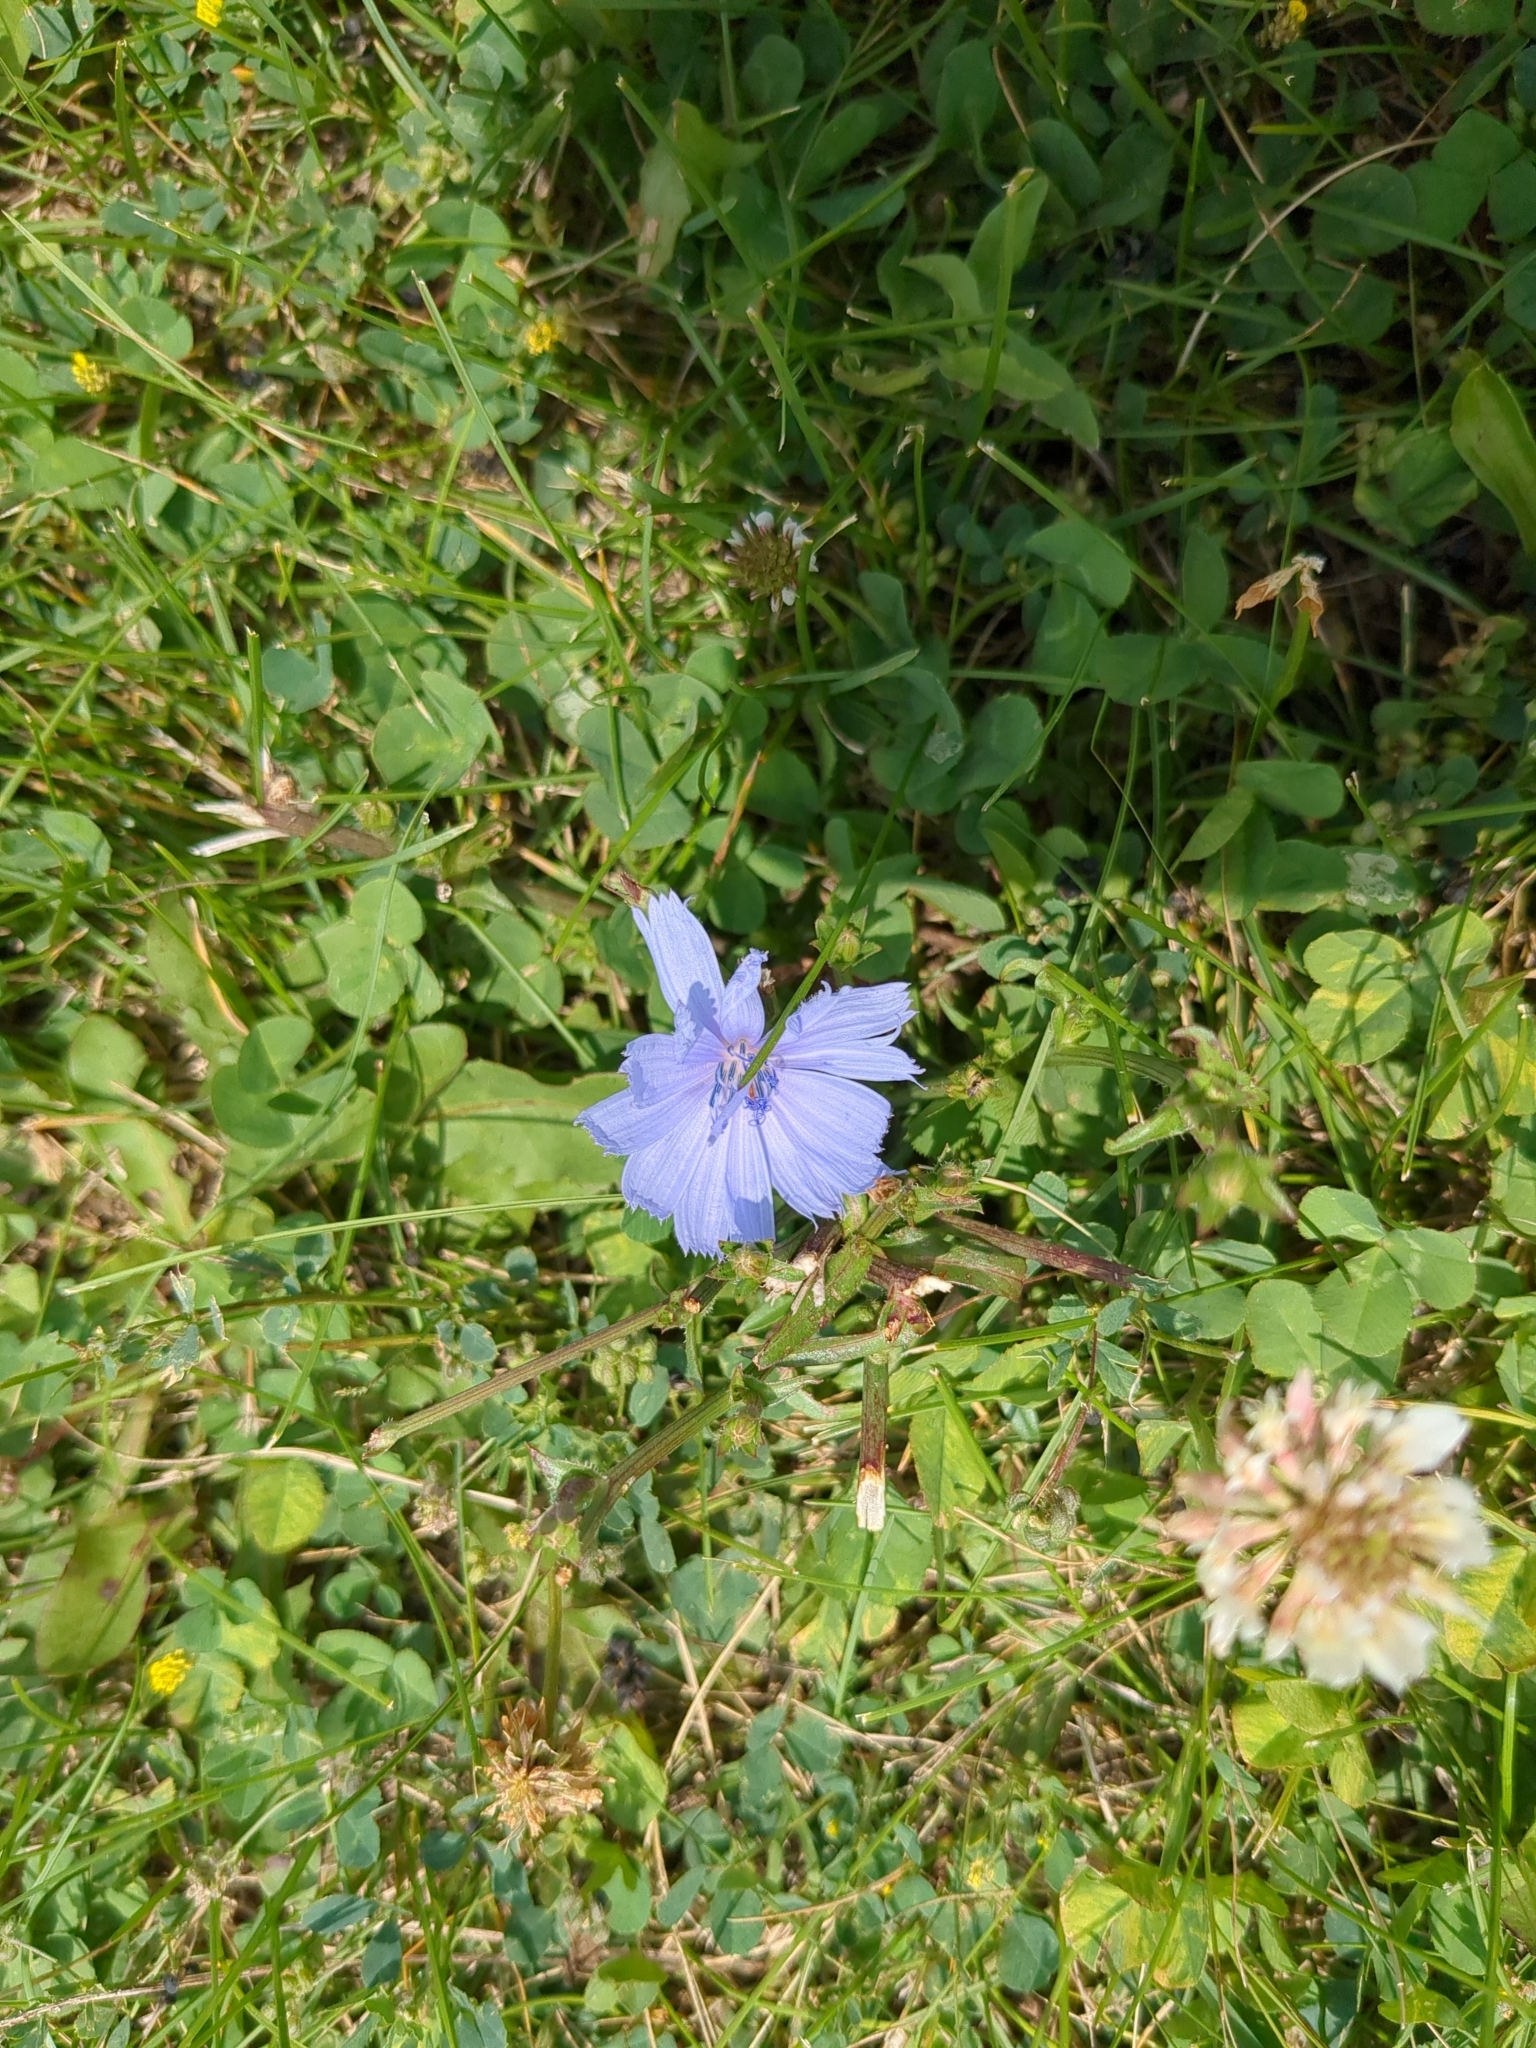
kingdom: Plantae
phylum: Tracheophyta
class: Magnoliopsida
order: Asterales
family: Asteraceae
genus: Cichorium
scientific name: Cichorium intybus
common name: Chicory
